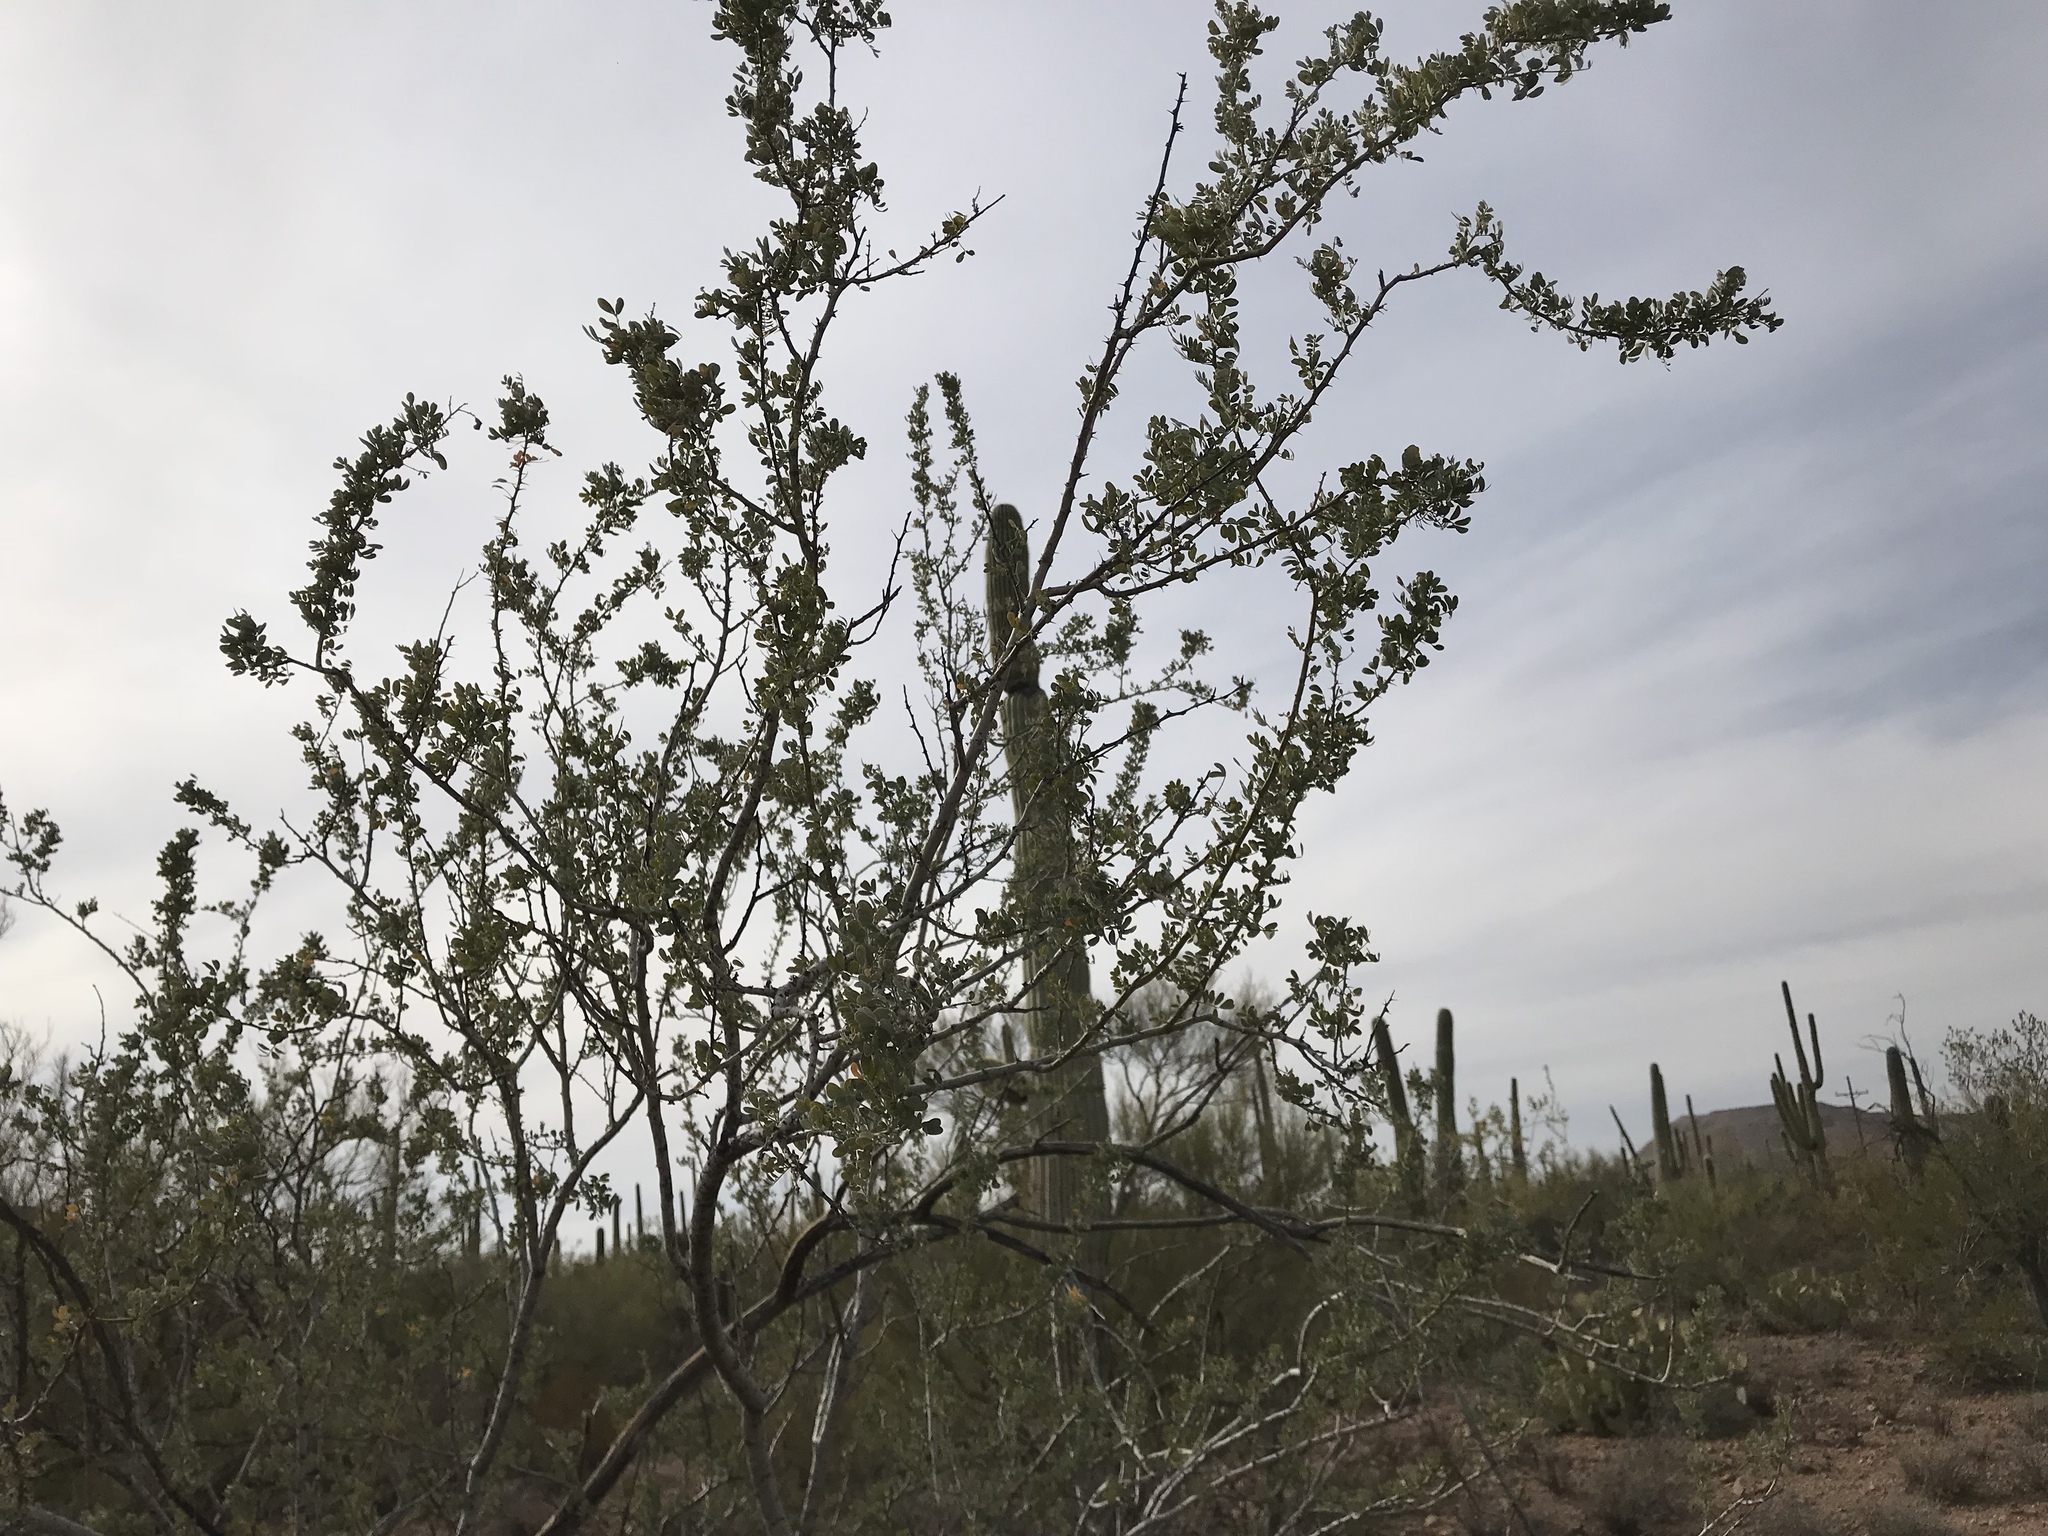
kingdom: Plantae
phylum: Tracheophyta
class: Magnoliopsida
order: Fabales
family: Fabaceae
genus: Olneya
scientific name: Olneya tesota
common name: Desert ironwood
